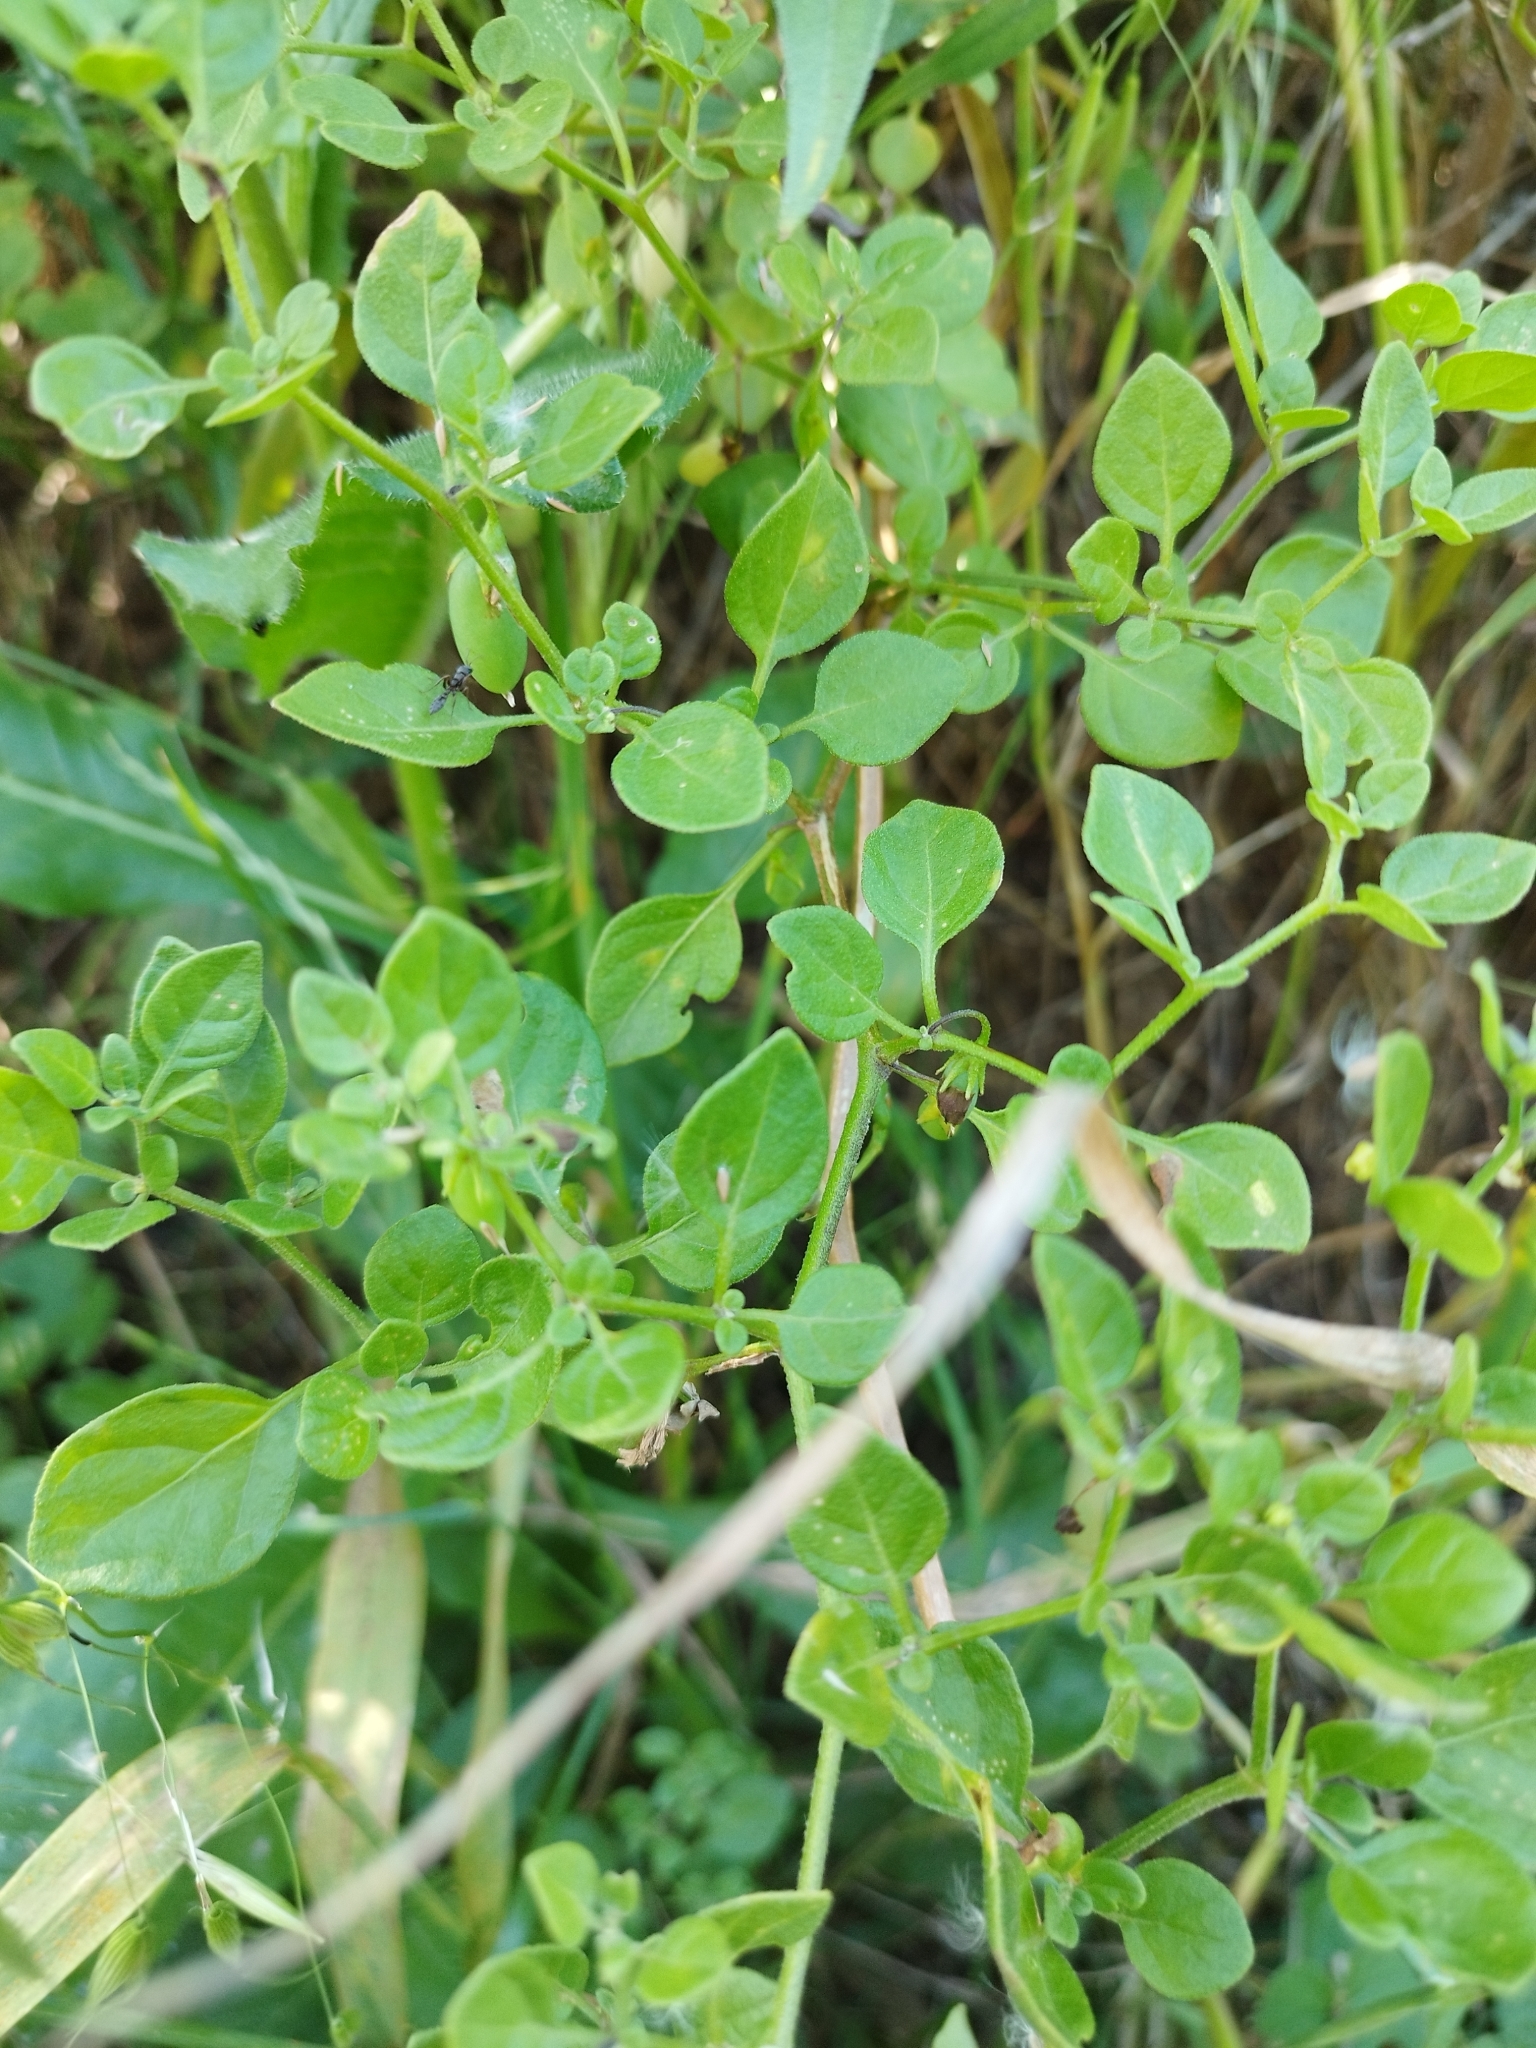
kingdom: Plantae
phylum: Tracheophyta
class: Magnoliopsida
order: Solanales
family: Solanaceae
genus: Salpichroa
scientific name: Salpichroa origanifolia
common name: Lily-of-the-valley-vine
